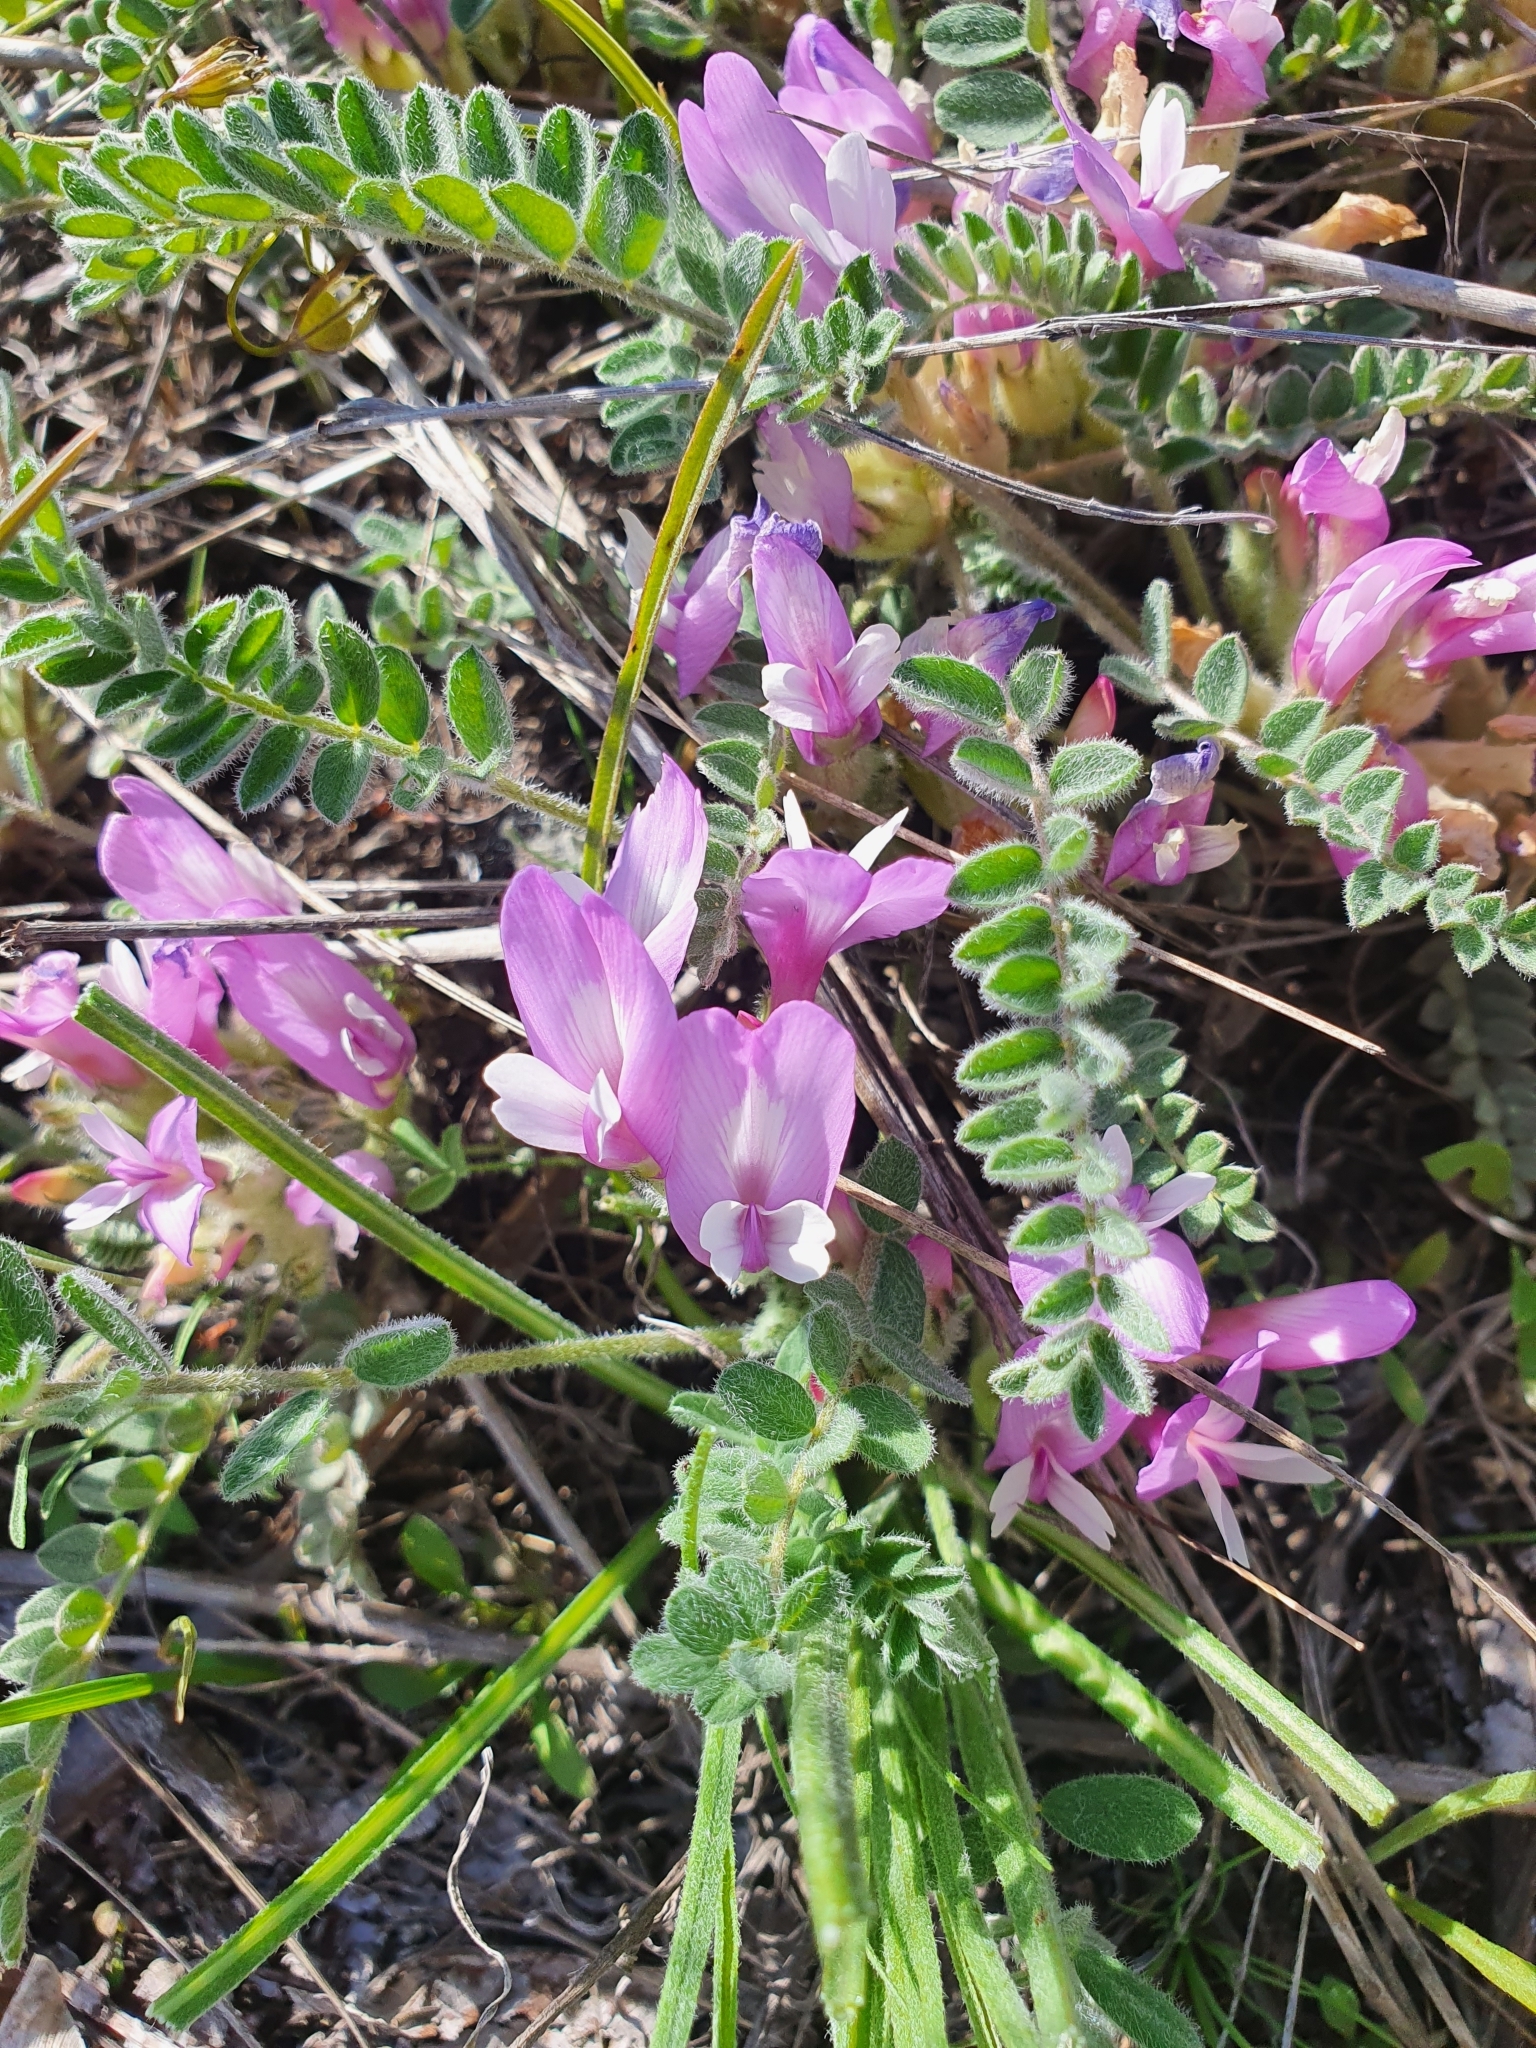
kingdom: Plantae
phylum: Tracheophyta
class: Magnoliopsida
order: Fabales
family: Fabaceae
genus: Astragalus
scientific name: Astragalus testiculatus
